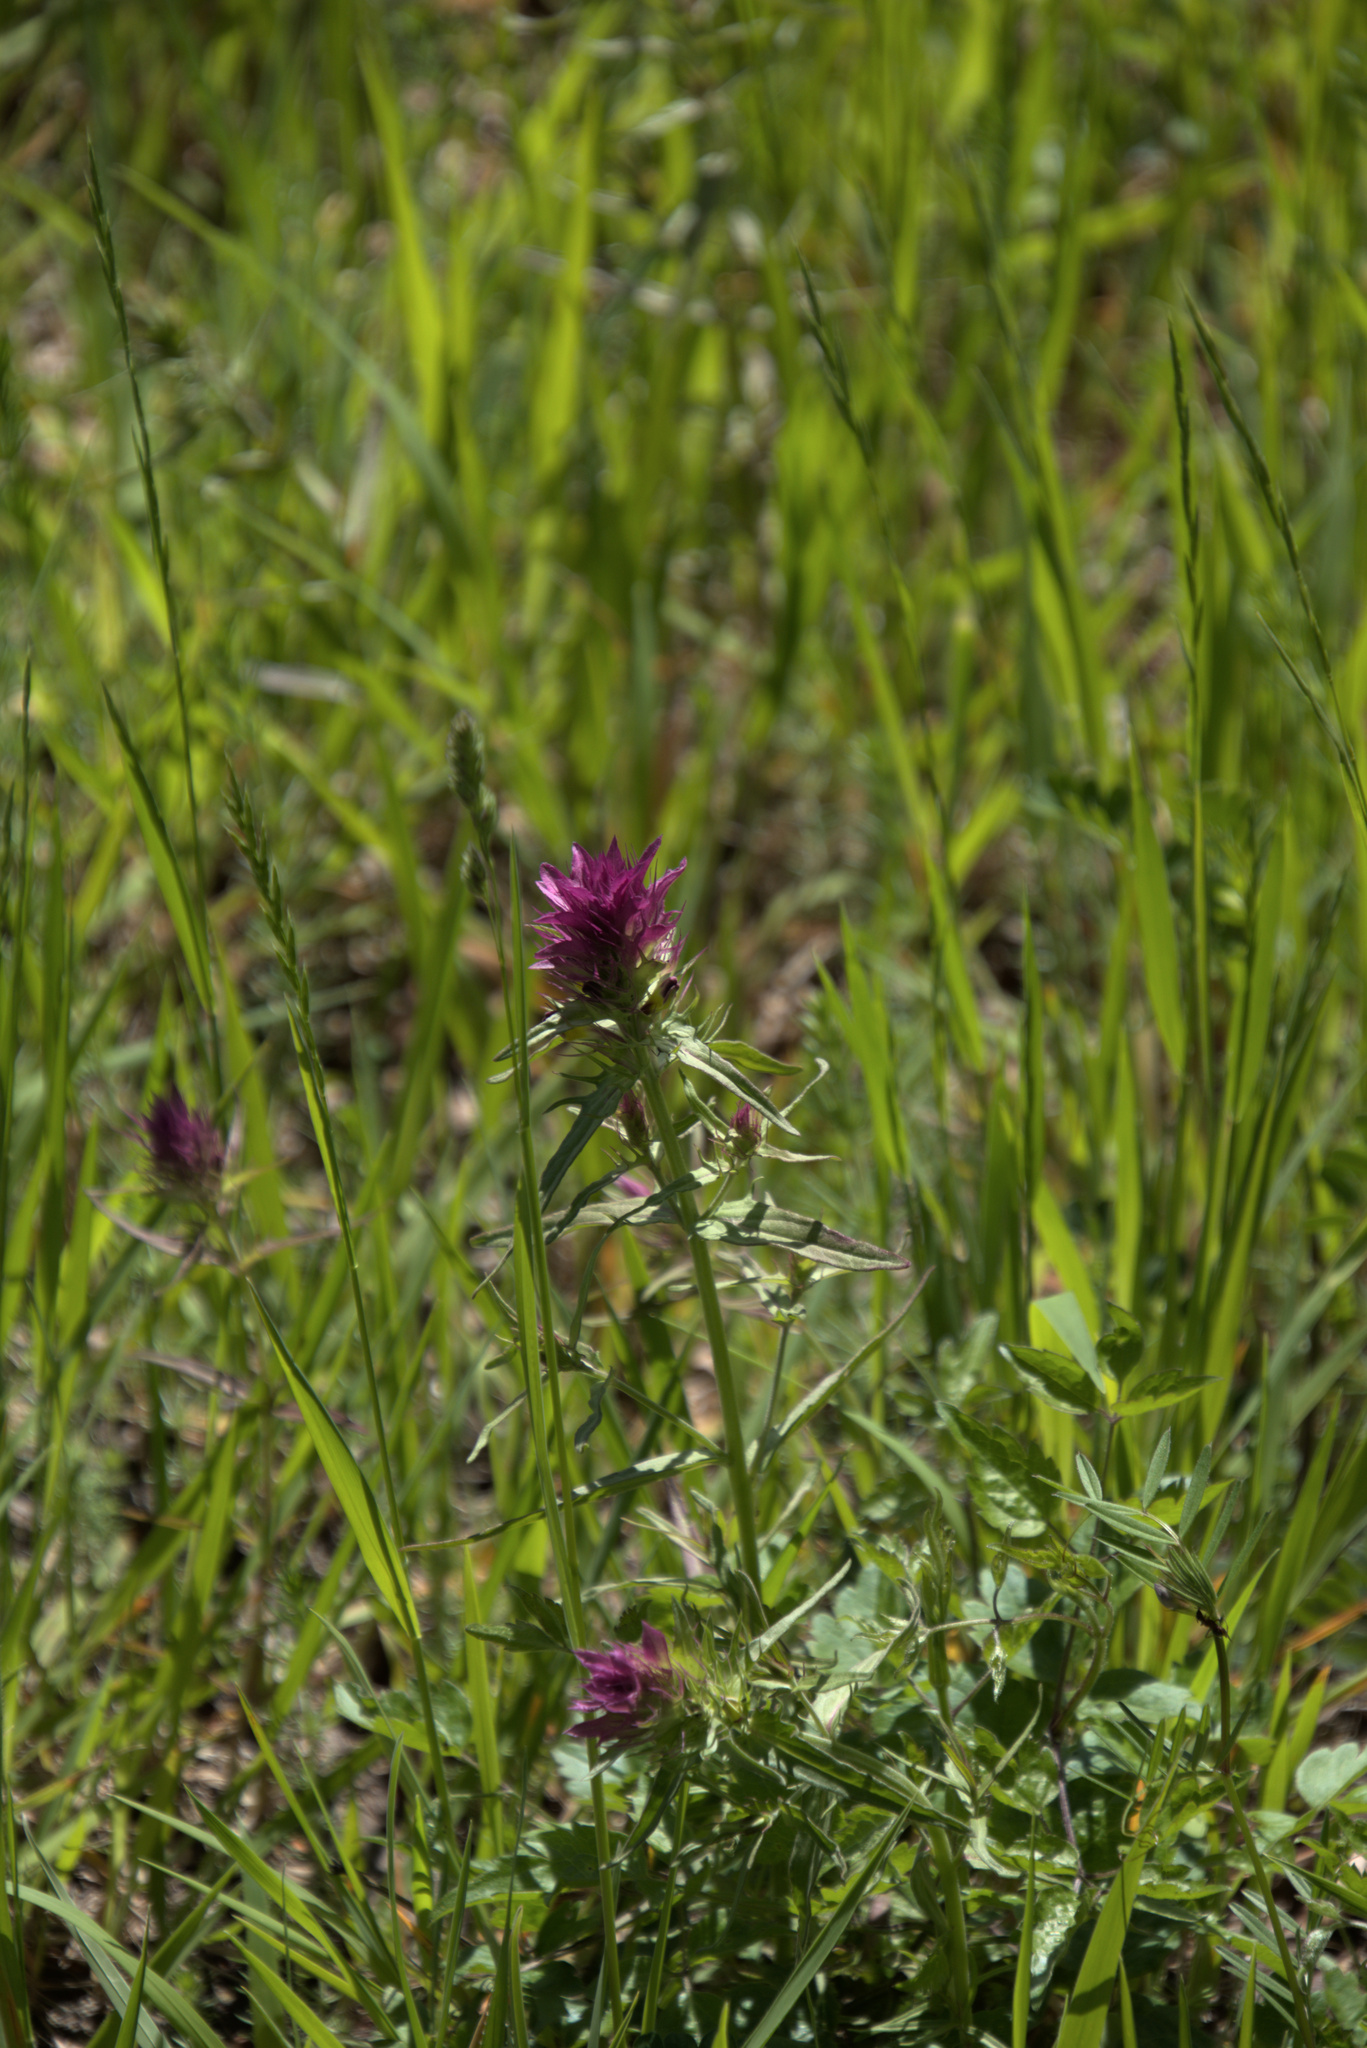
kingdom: Plantae
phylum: Tracheophyta
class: Magnoliopsida
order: Lamiales
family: Orobanchaceae
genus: Melampyrum
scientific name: Melampyrum arvense
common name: Field cow-wheat
